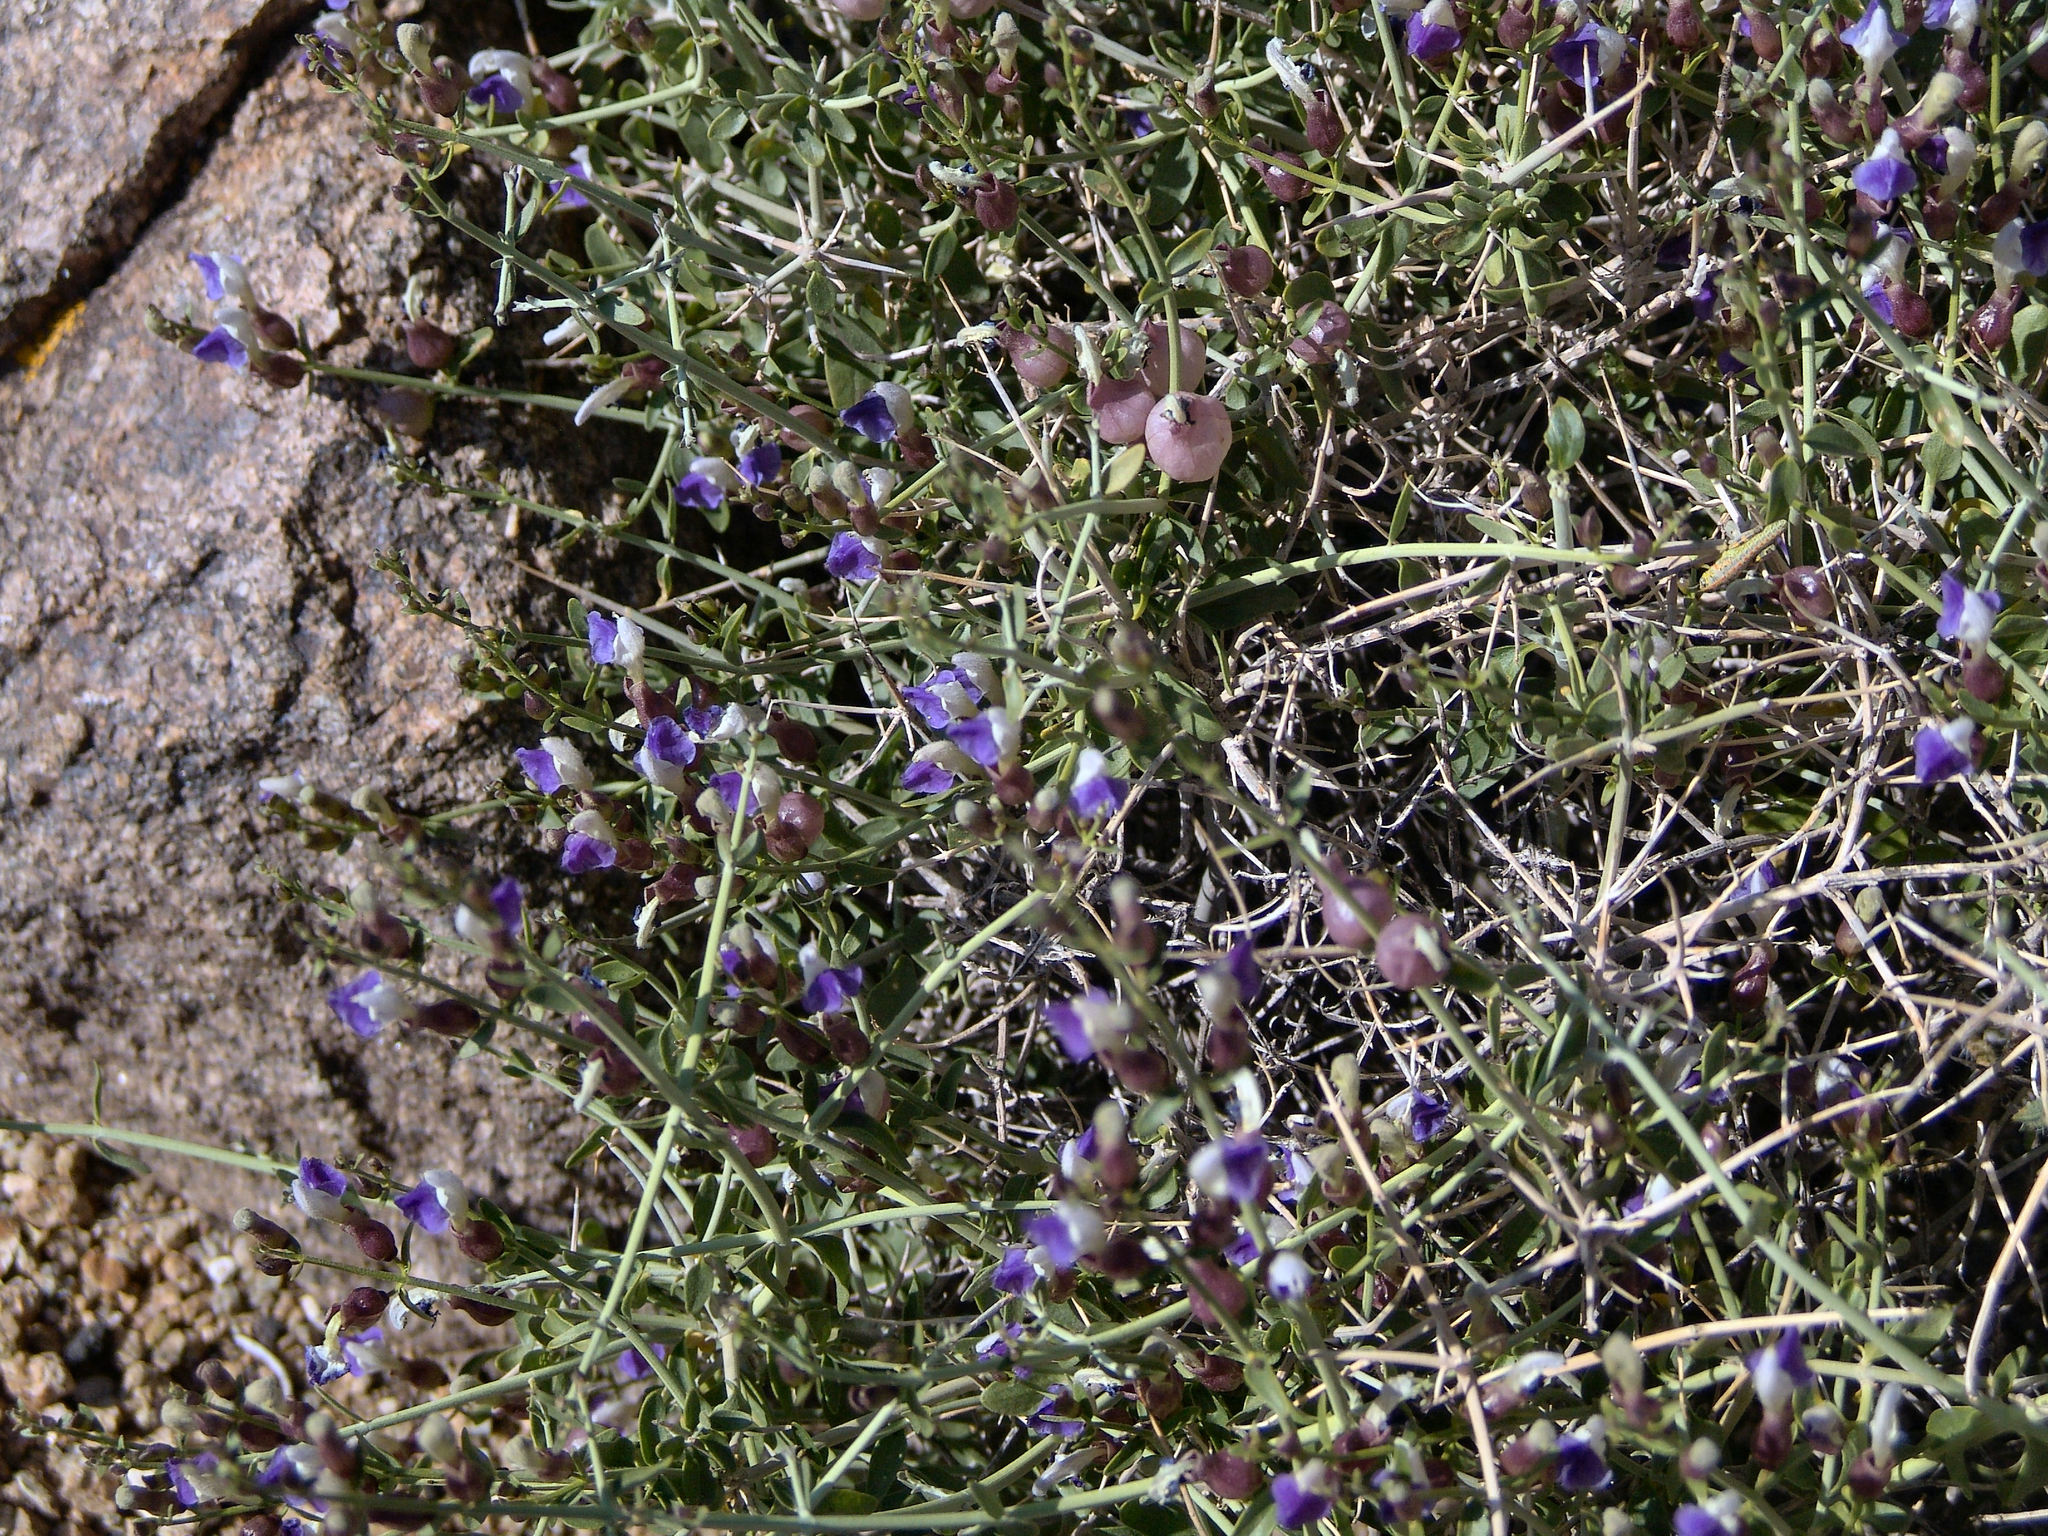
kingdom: Plantae
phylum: Tracheophyta
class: Magnoliopsida
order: Lamiales
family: Lamiaceae
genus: Scutellaria
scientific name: Scutellaria mexicana
